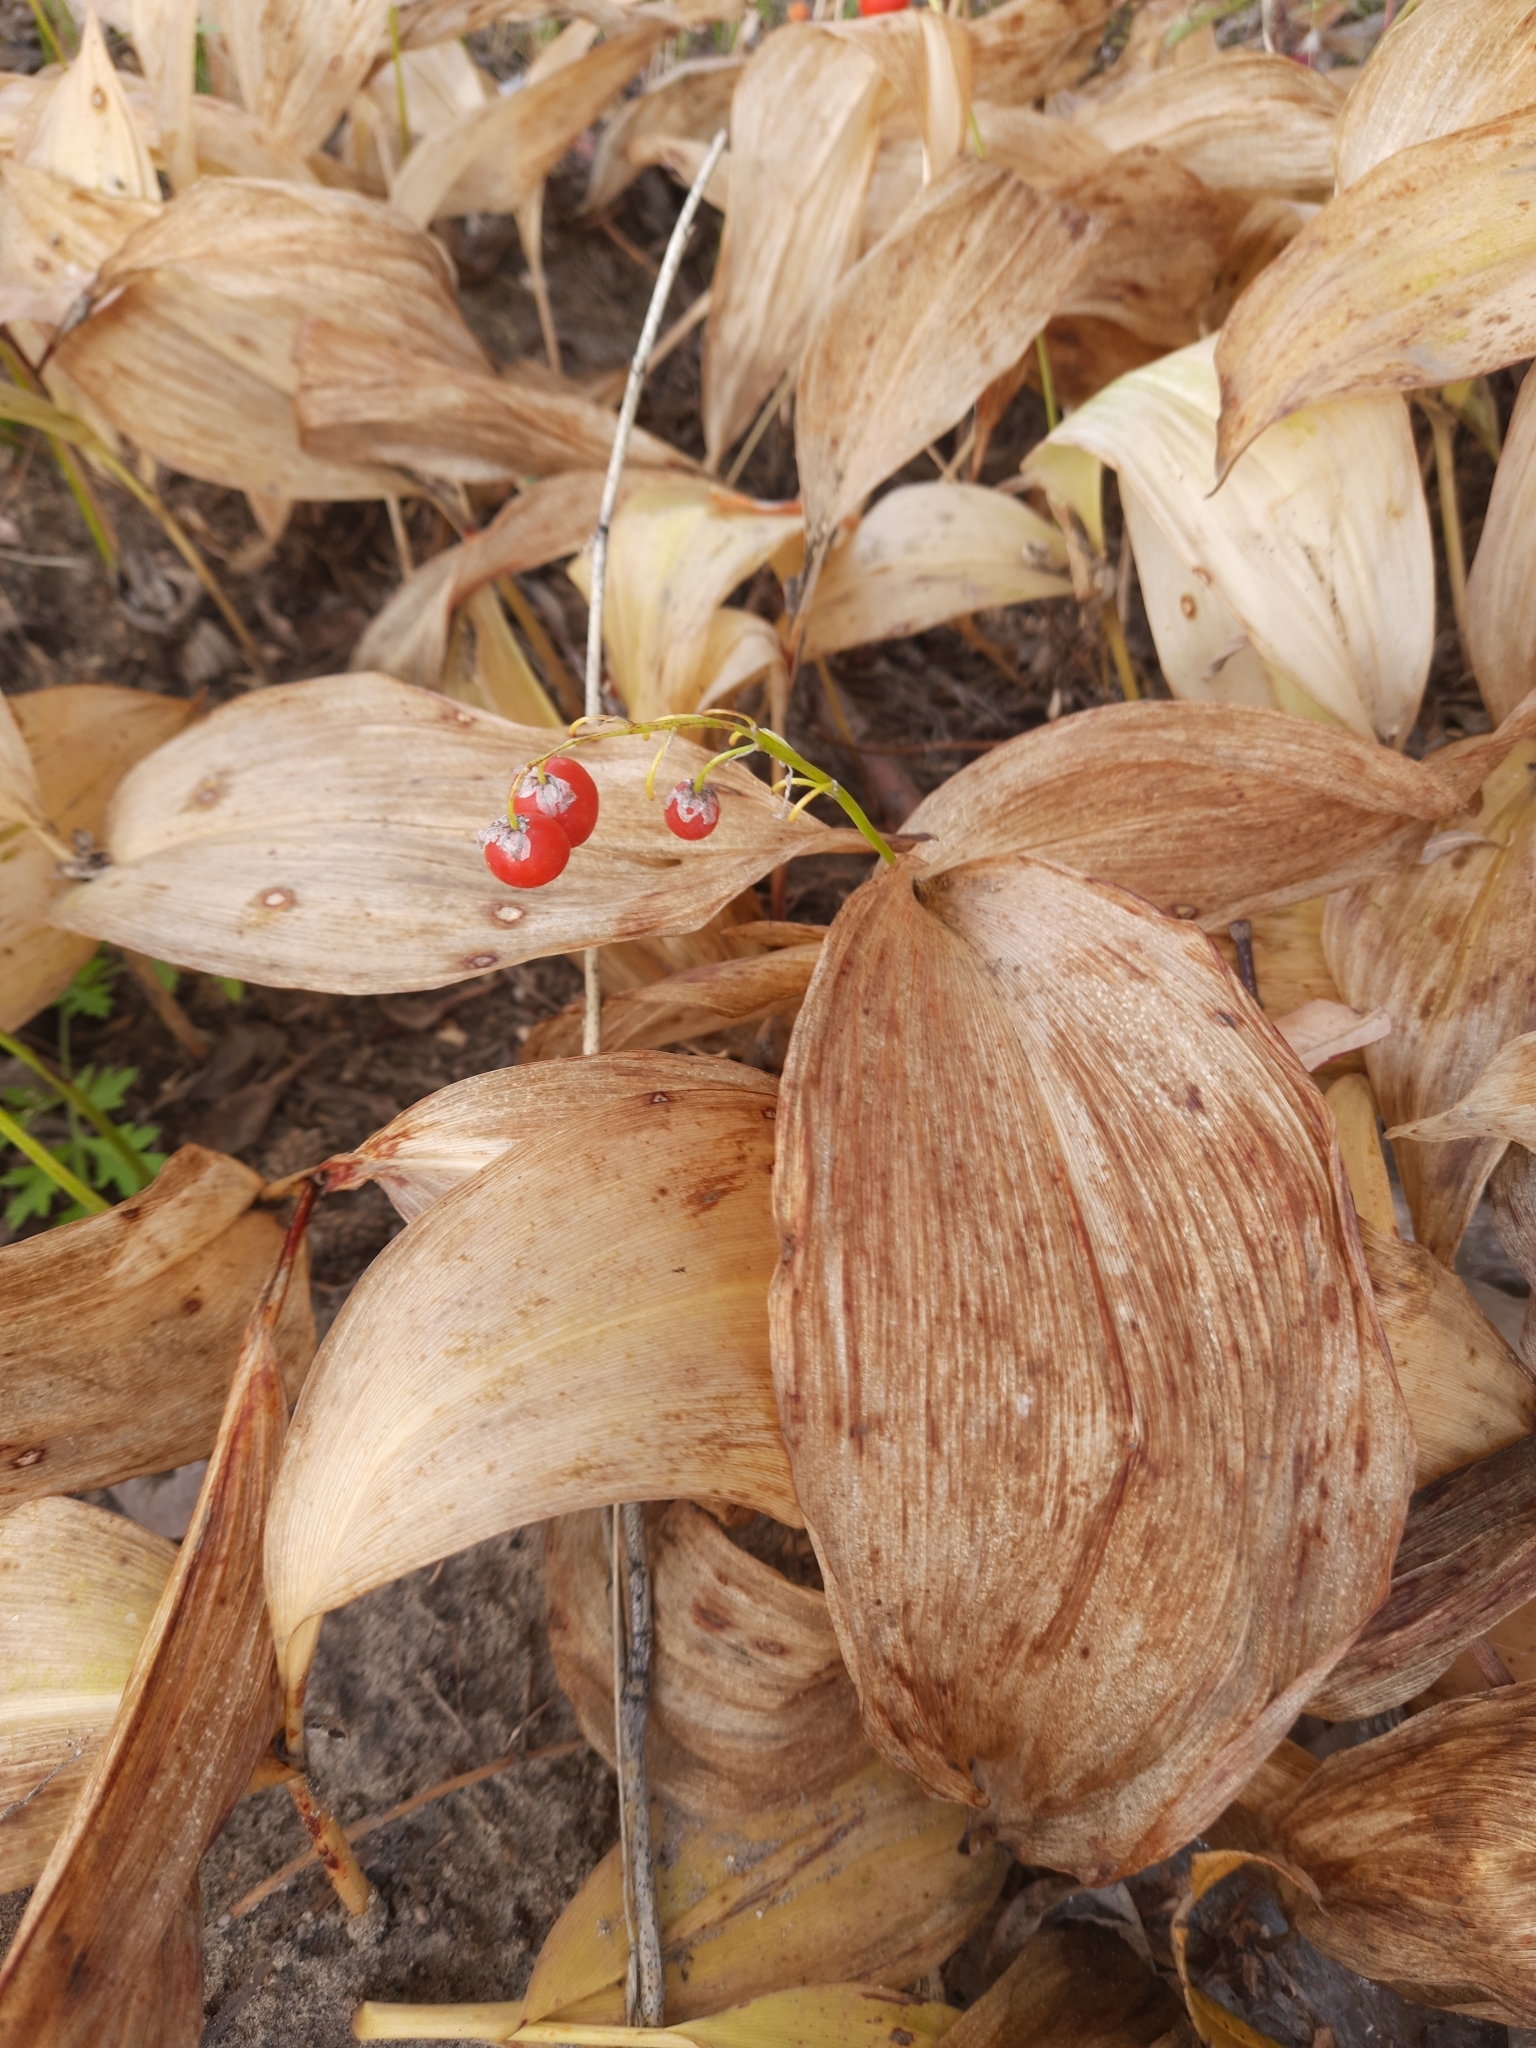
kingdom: Plantae
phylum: Tracheophyta
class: Liliopsida
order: Asparagales
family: Asparagaceae
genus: Convallaria
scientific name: Convallaria majalis
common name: Lily-of-the-valley
